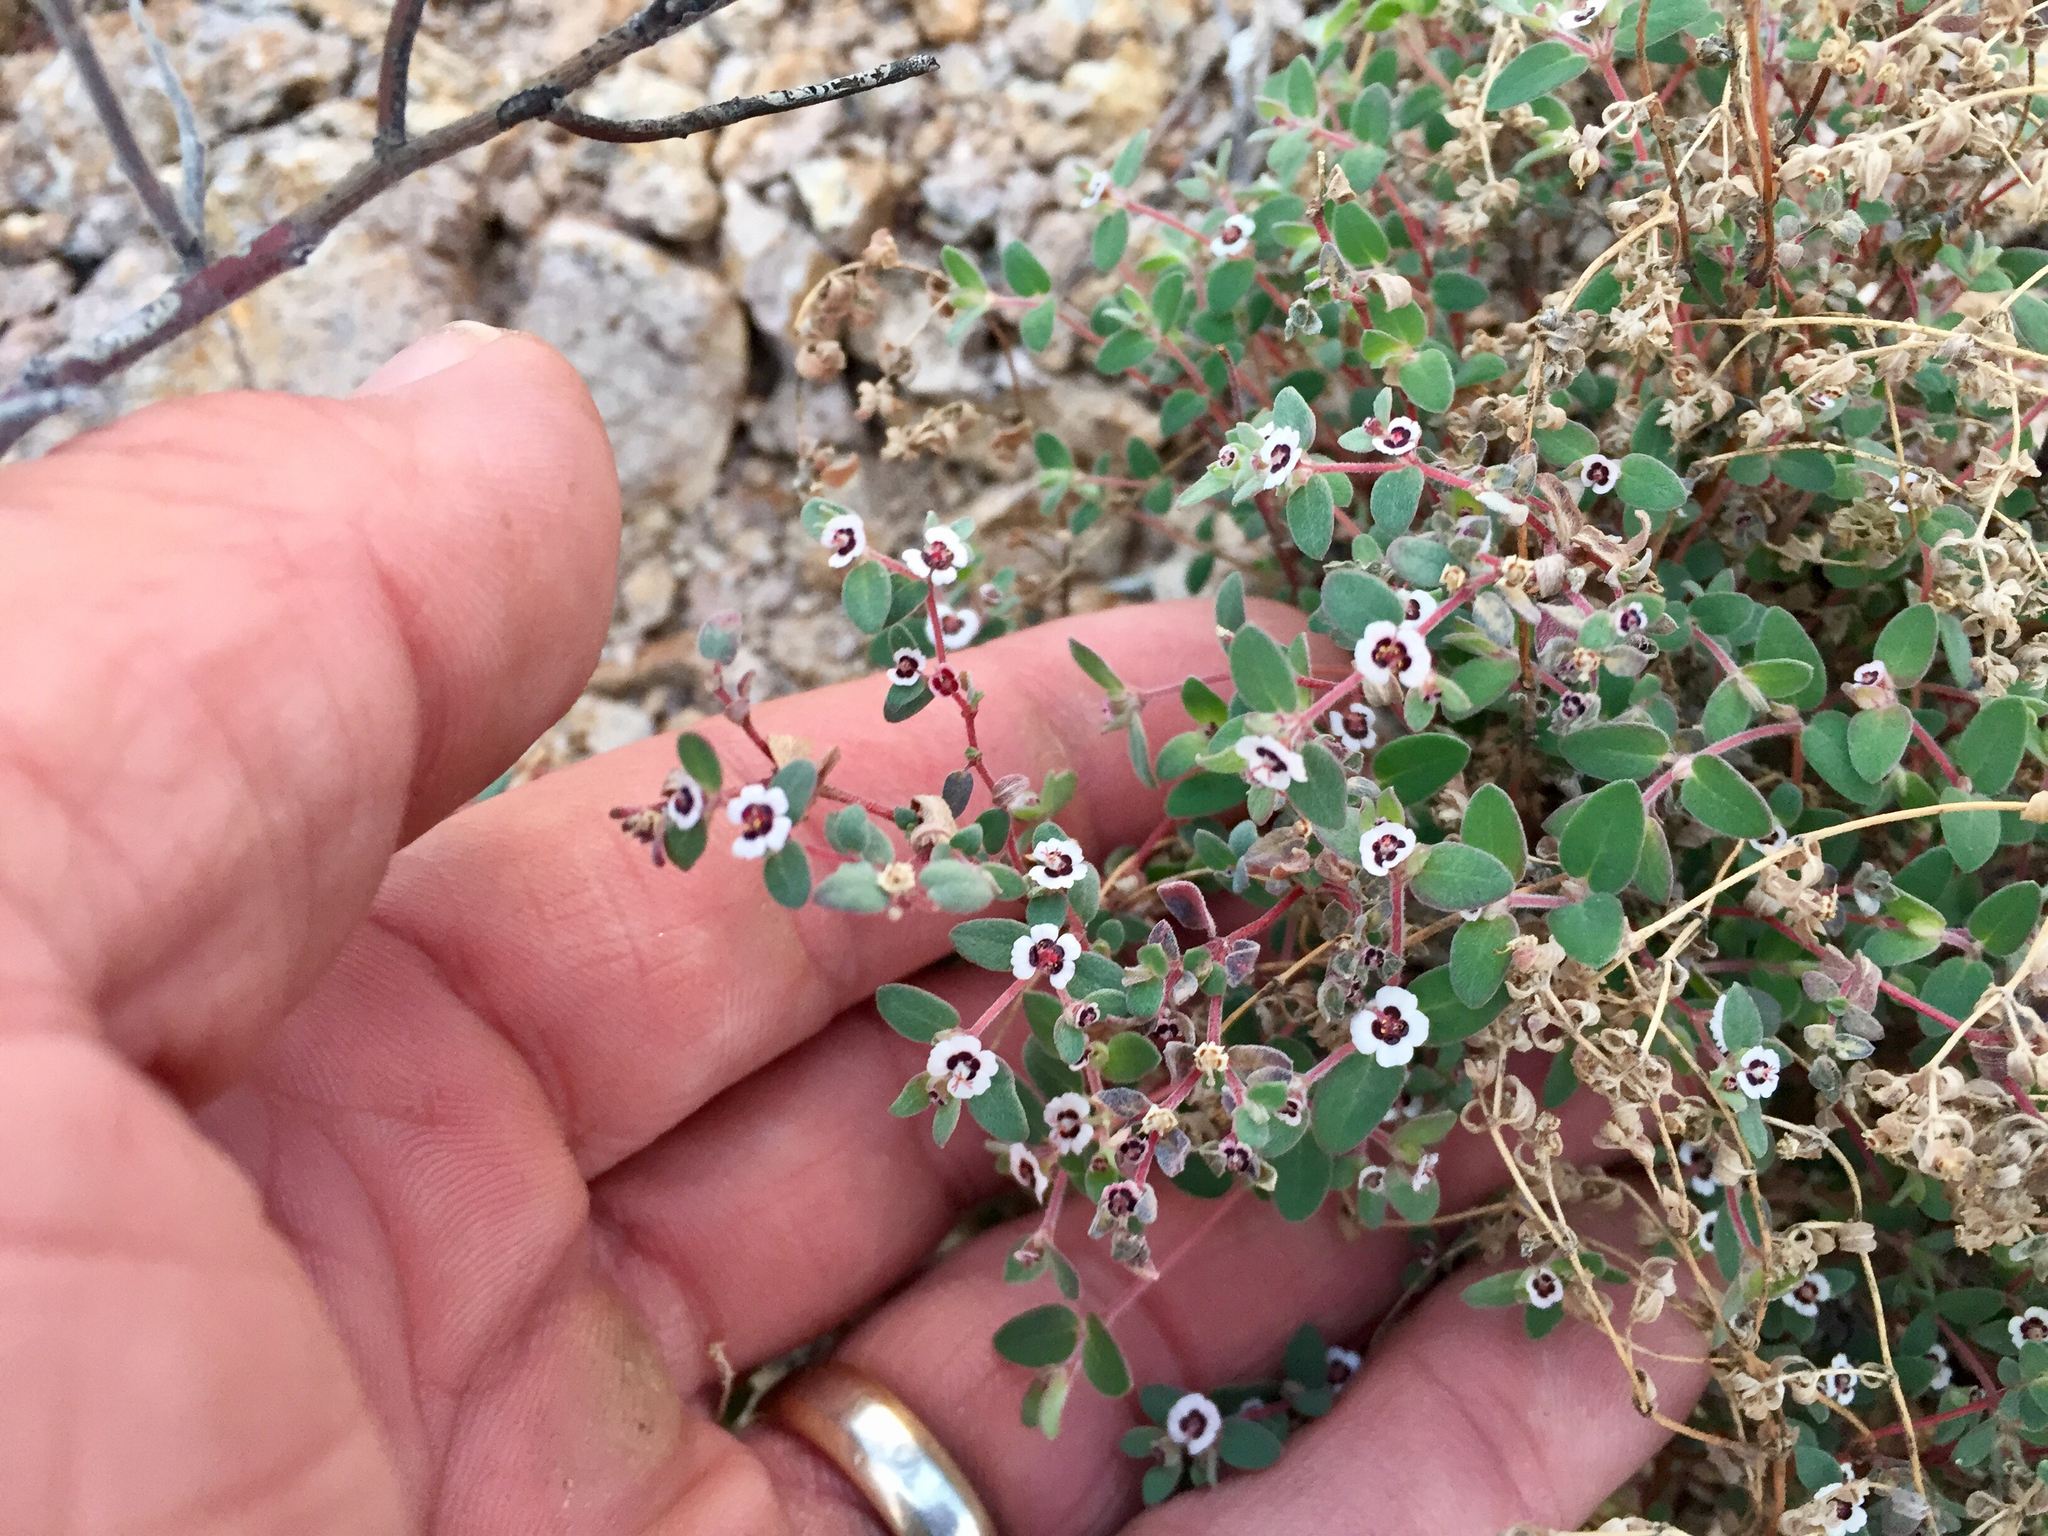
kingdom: Plantae
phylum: Tracheophyta
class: Magnoliopsida
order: Malpighiales
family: Euphorbiaceae
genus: Euphorbia
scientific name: Euphorbia melanadenia
